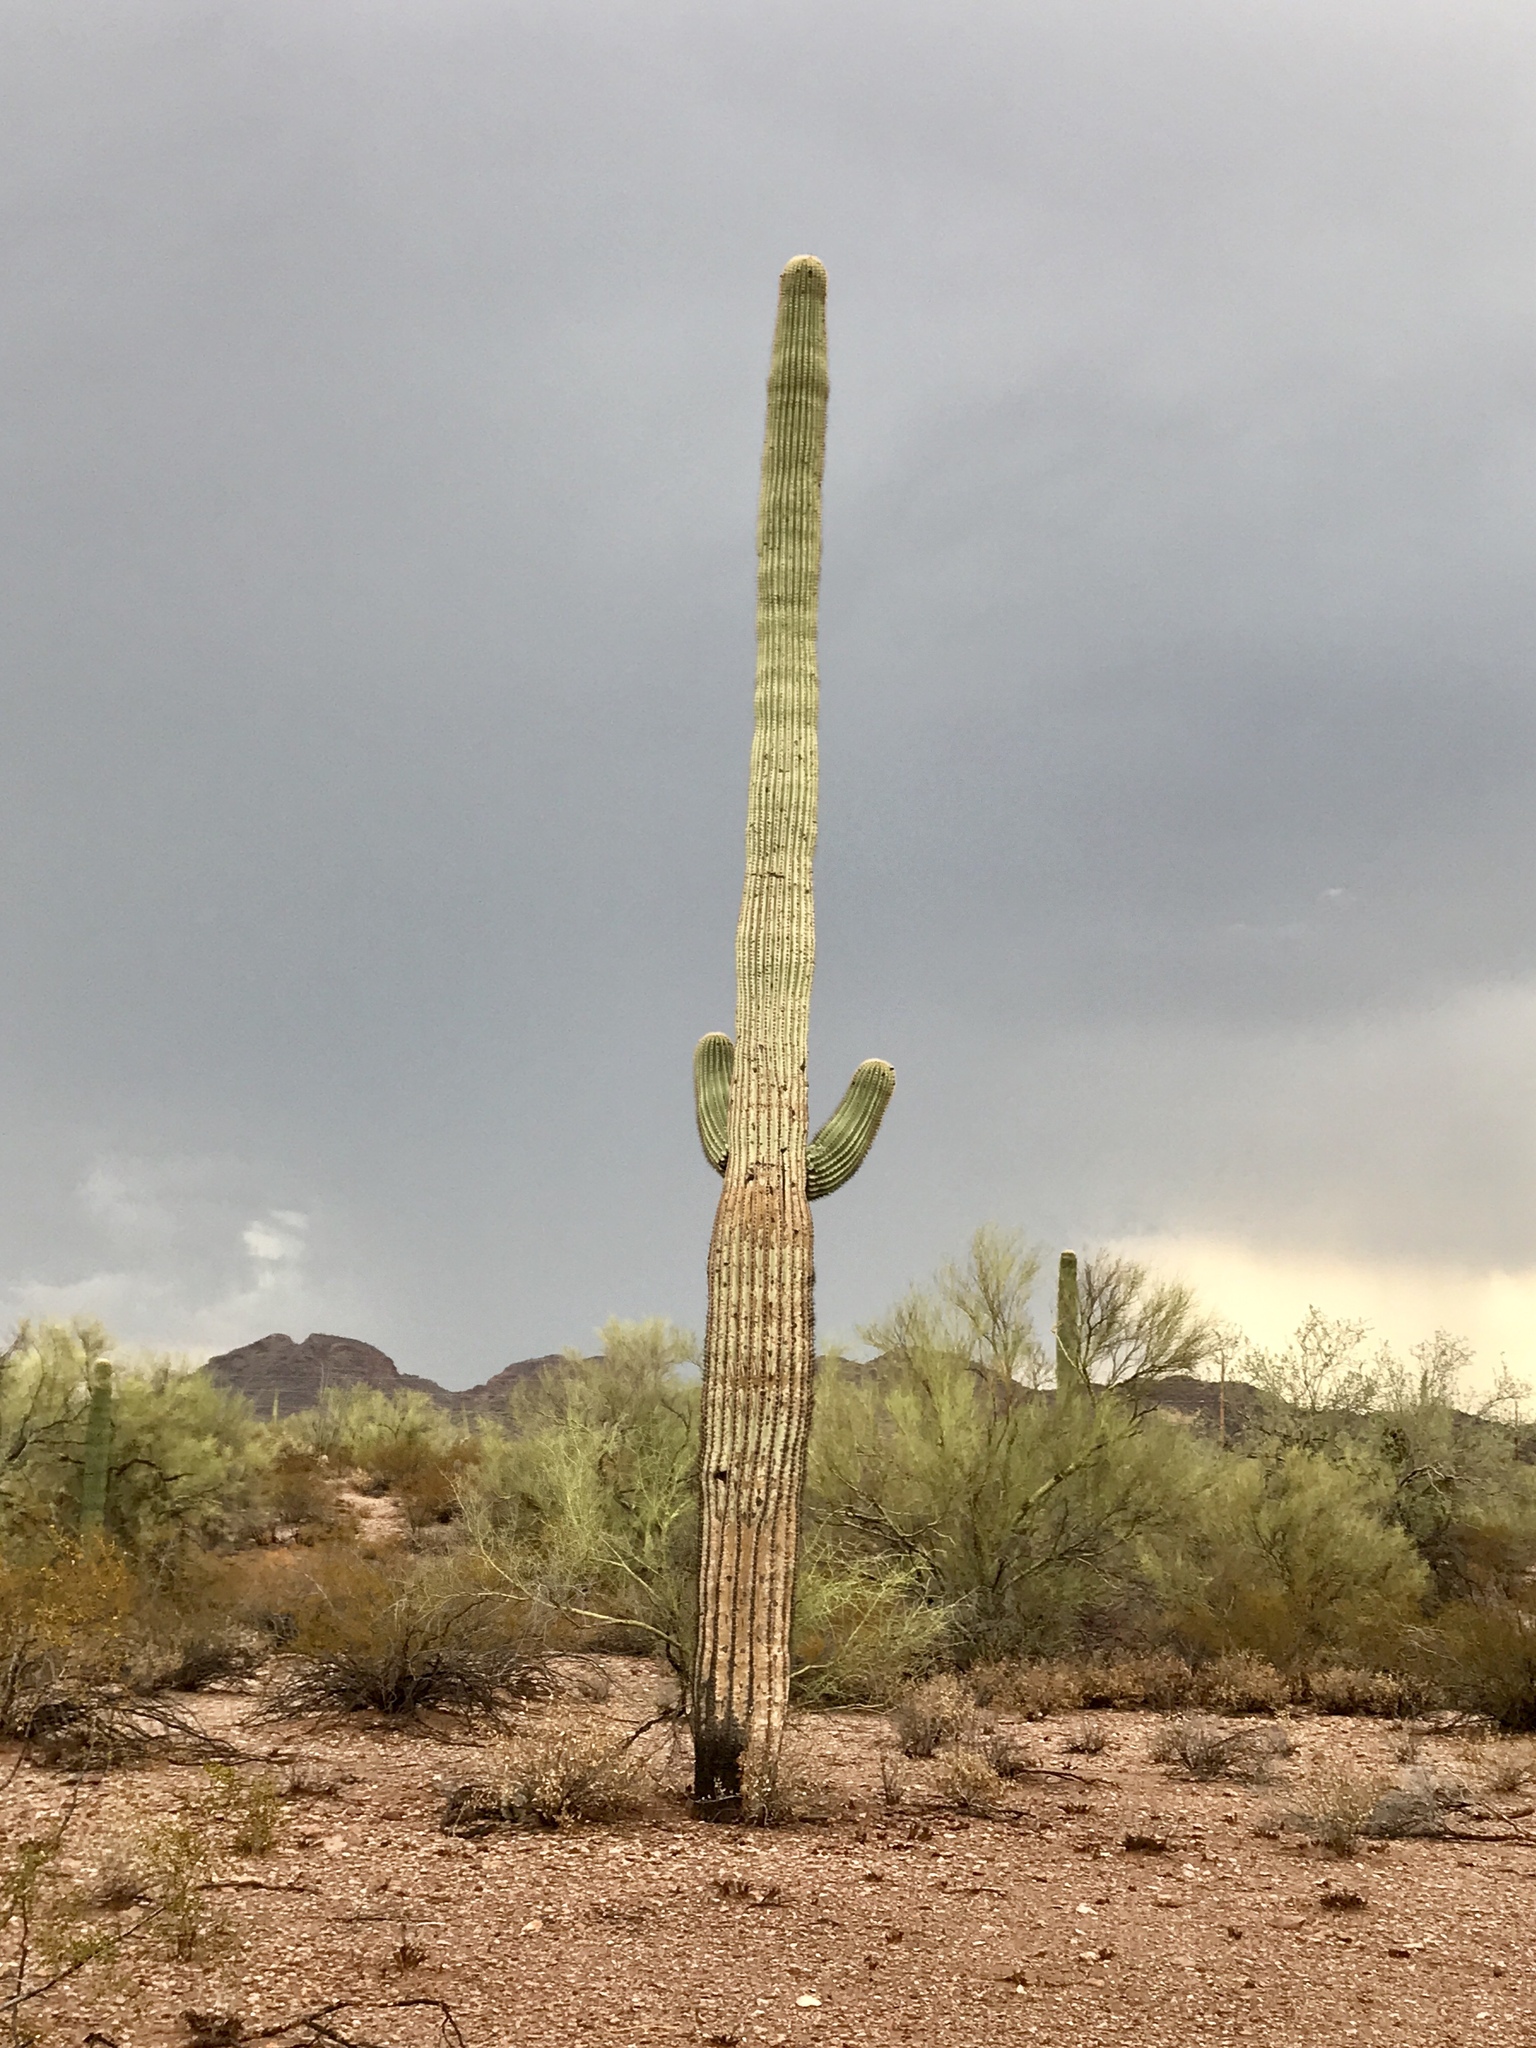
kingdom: Plantae
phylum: Tracheophyta
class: Magnoliopsida
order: Caryophyllales
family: Cactaceae
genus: Carnegiea
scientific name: Carnegiea gigantea
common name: Saguaro
